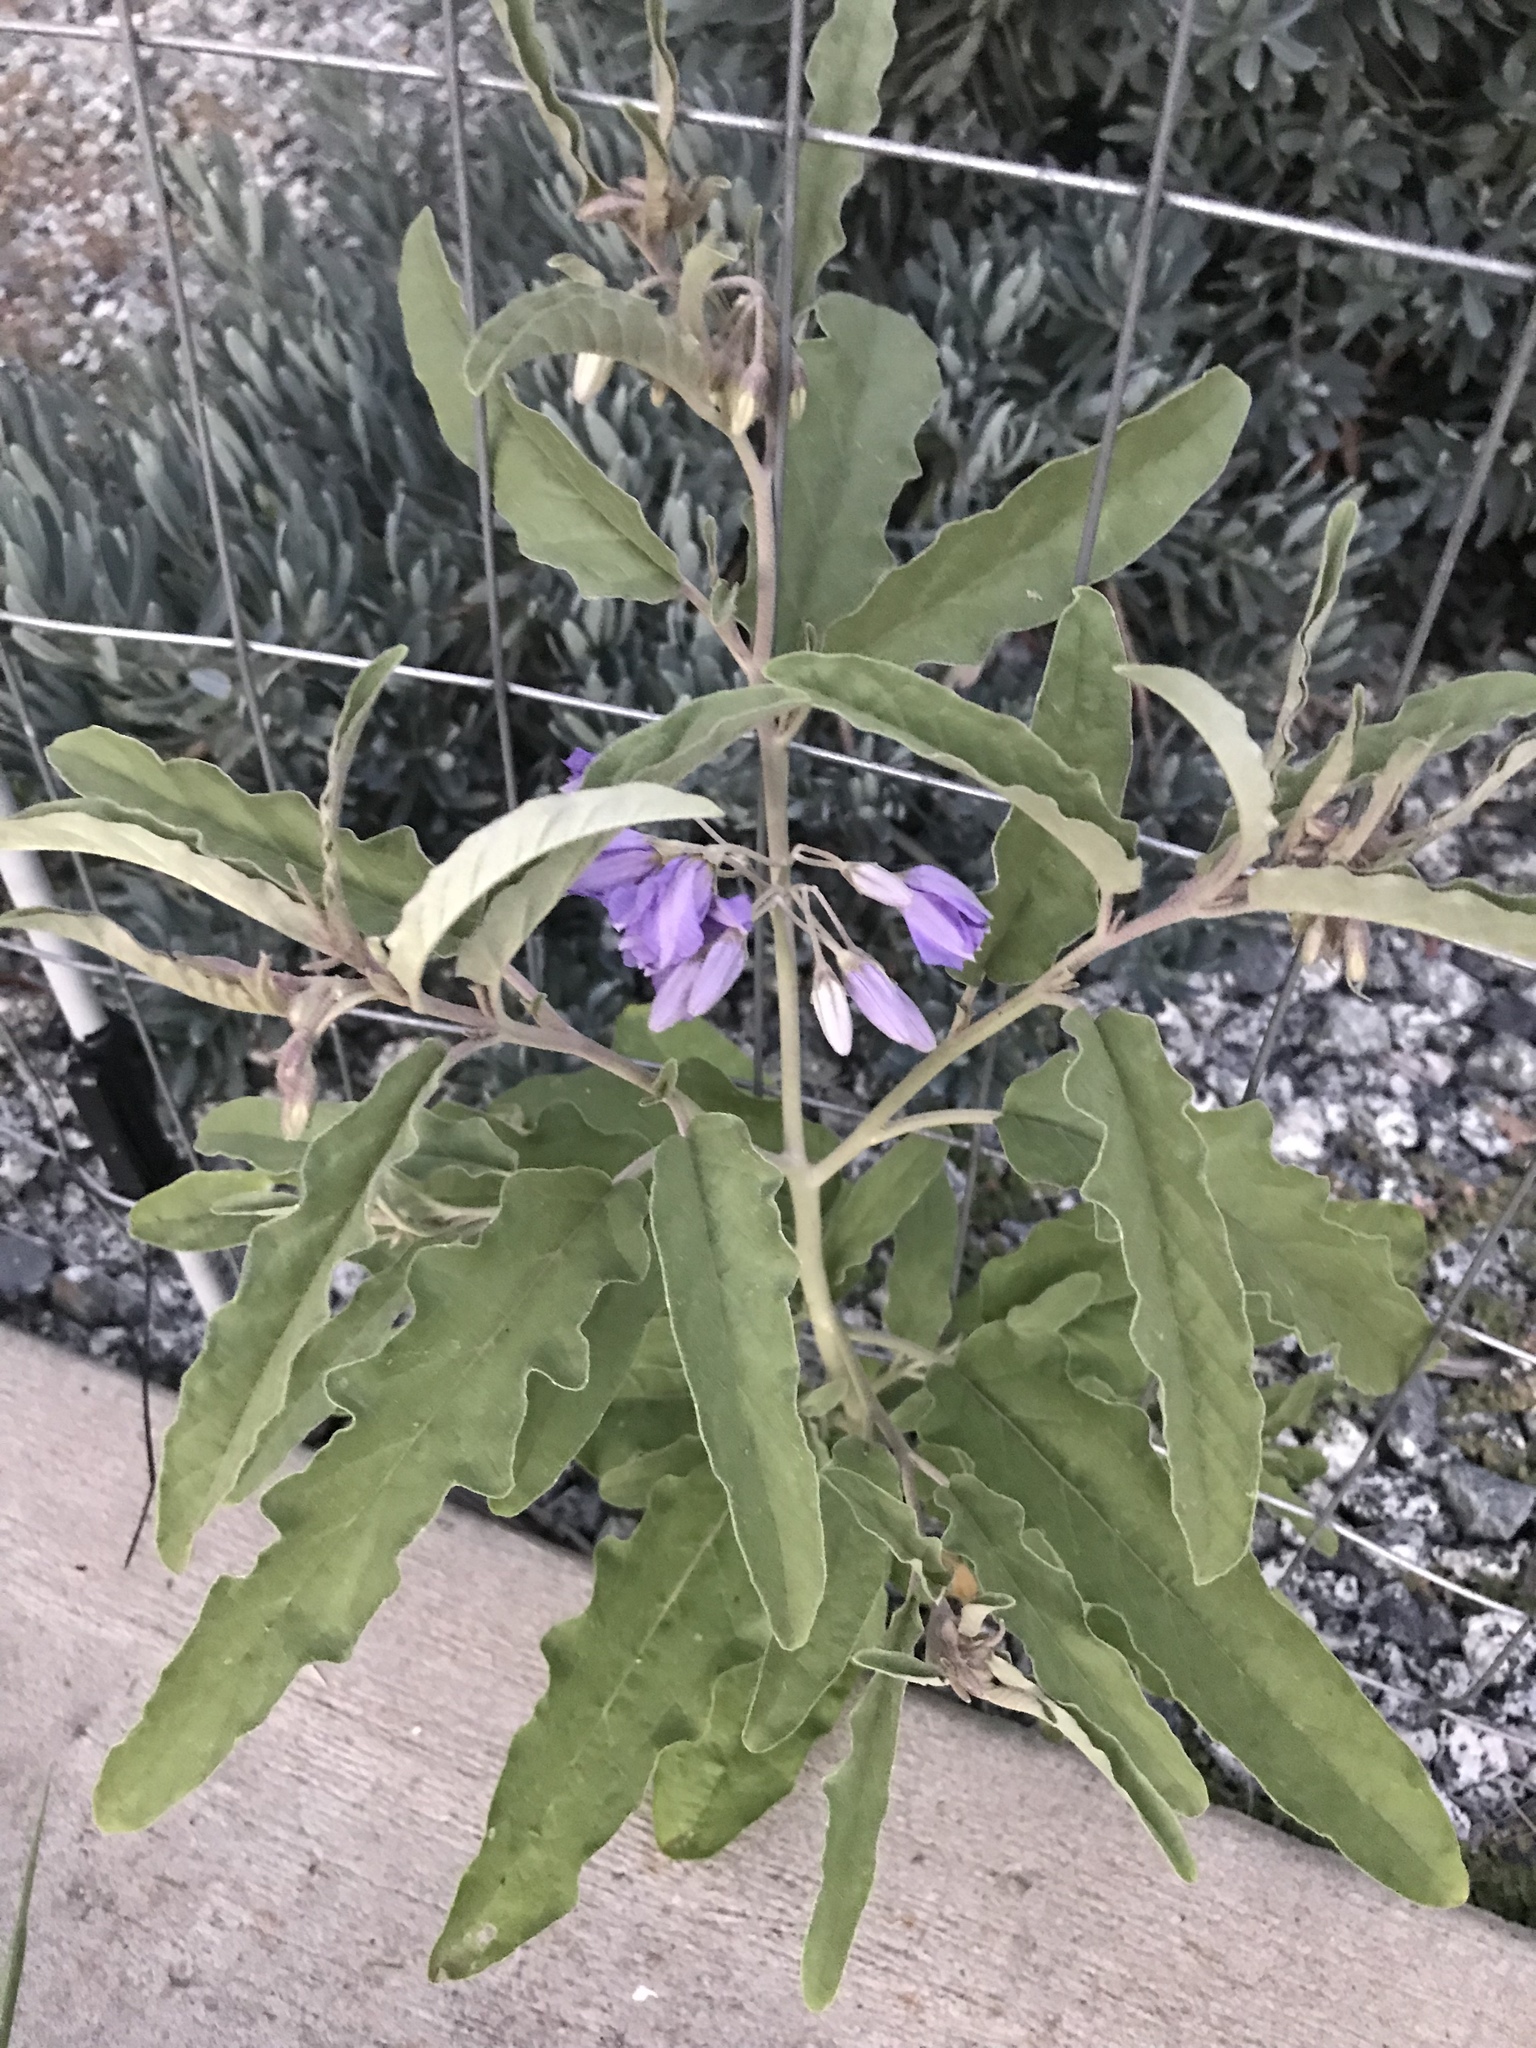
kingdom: Plantae
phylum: Tracheophyta
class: Magnoliopsida
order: Solanales
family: Solanaceae
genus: Solanum
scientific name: Solanum elaeagnifolium
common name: Silverleaf nightshade
